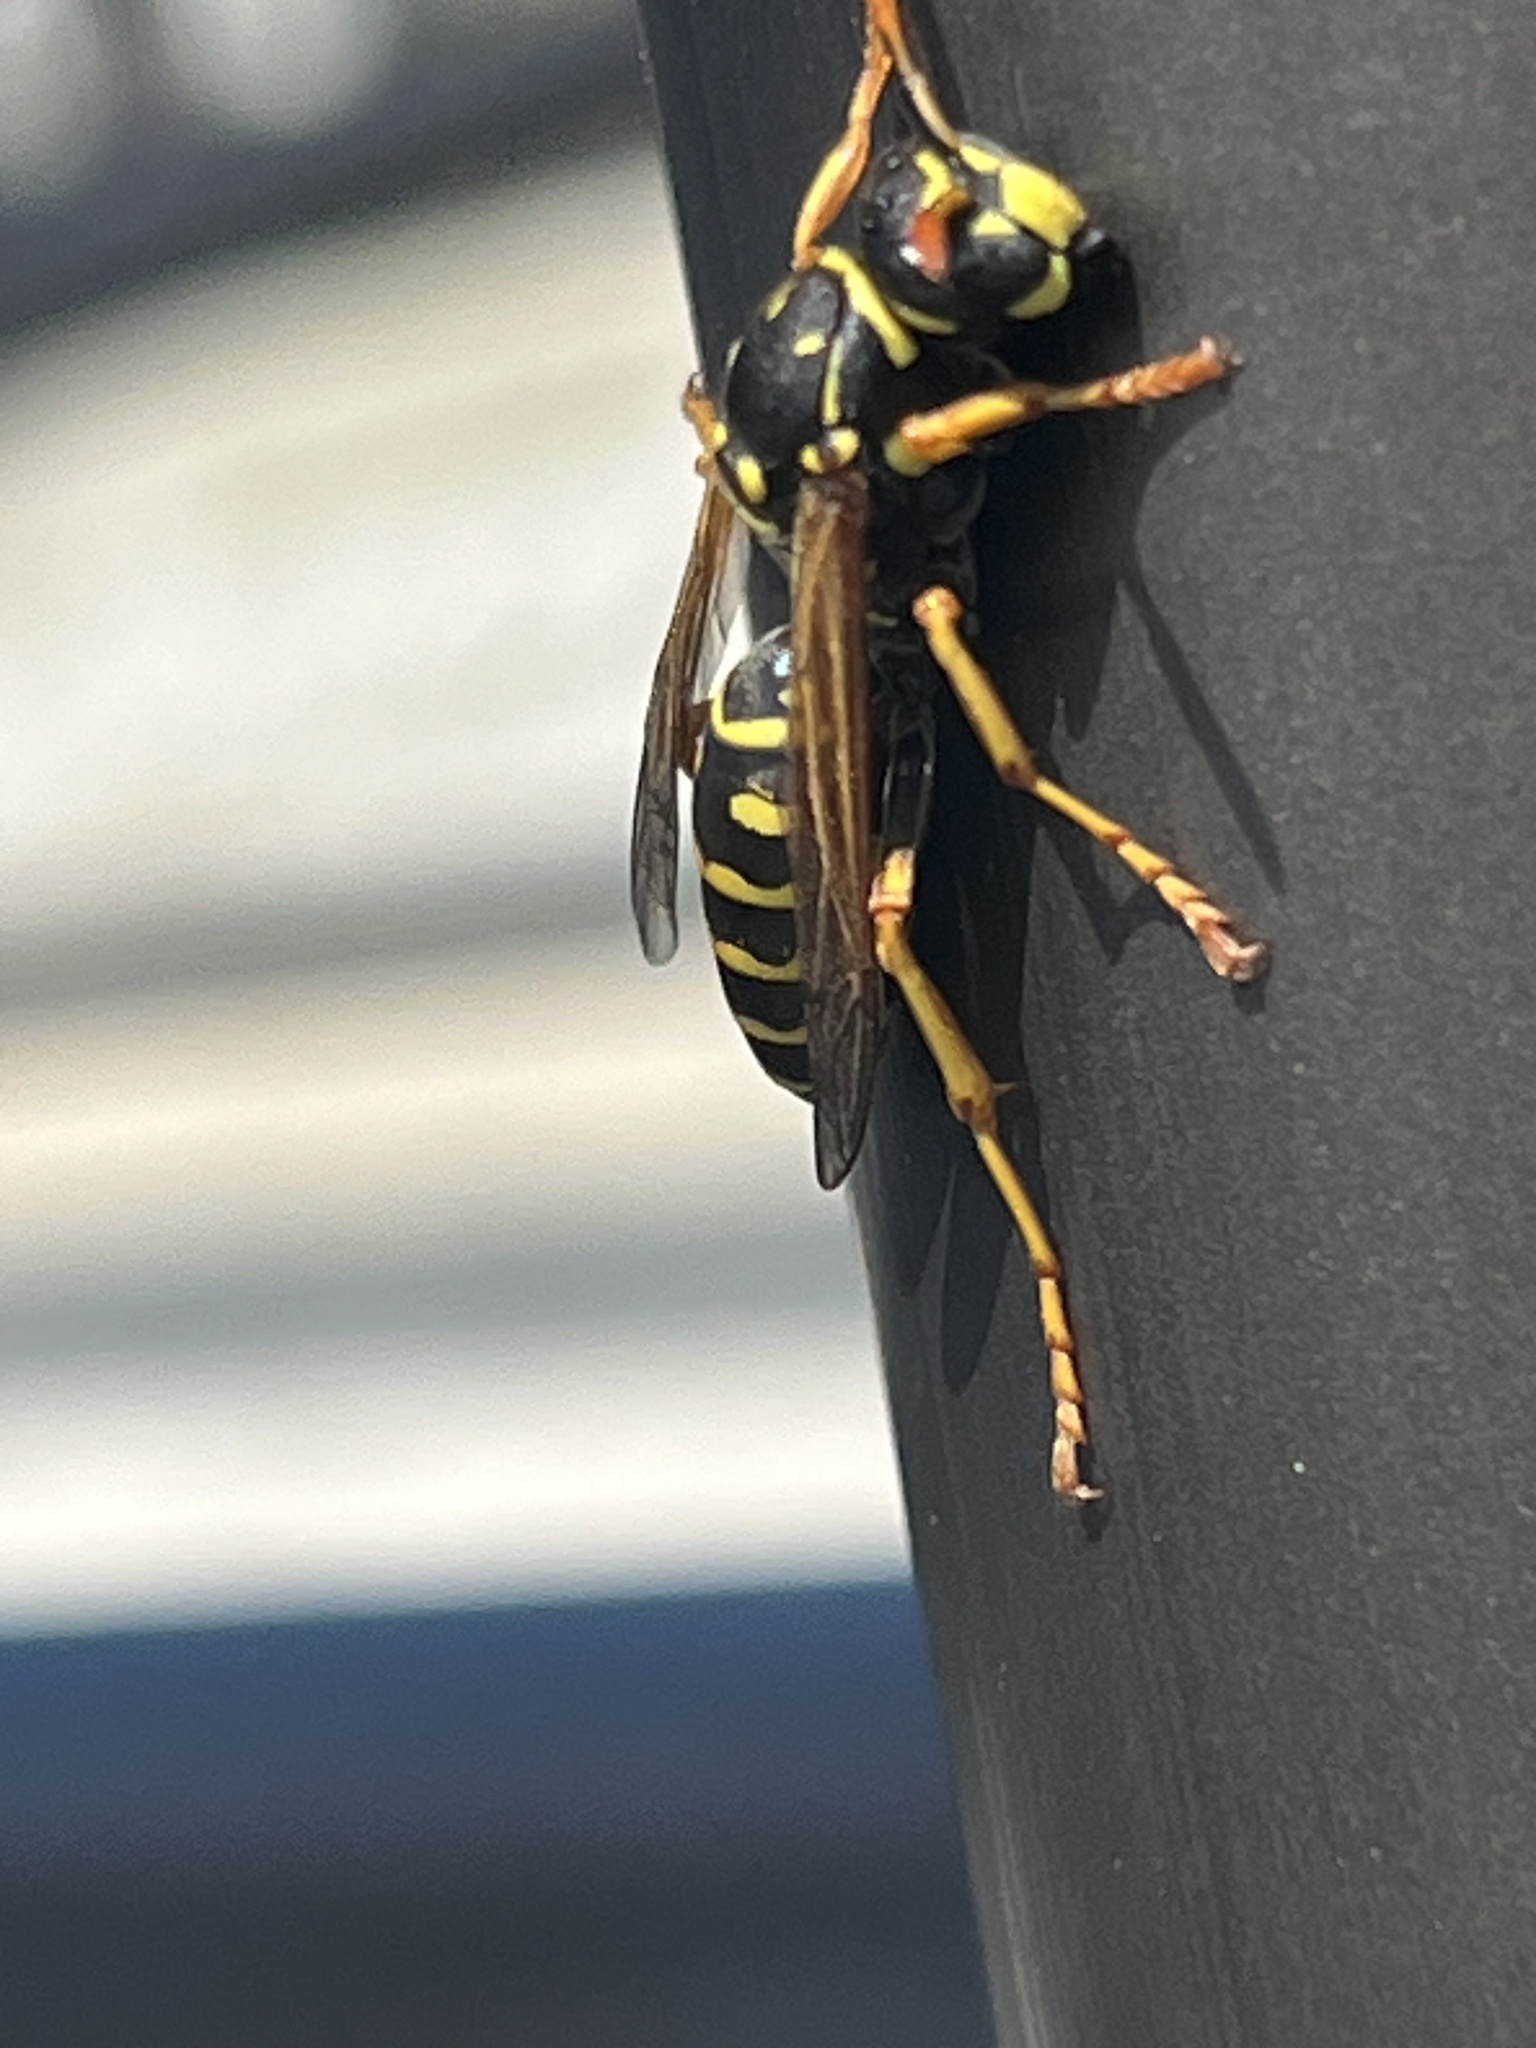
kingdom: Animalia
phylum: Arthropoda
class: Insecta
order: Hymenoptera
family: Eumenidae
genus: Polistes
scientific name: Polistes dominula
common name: Paper wasp
